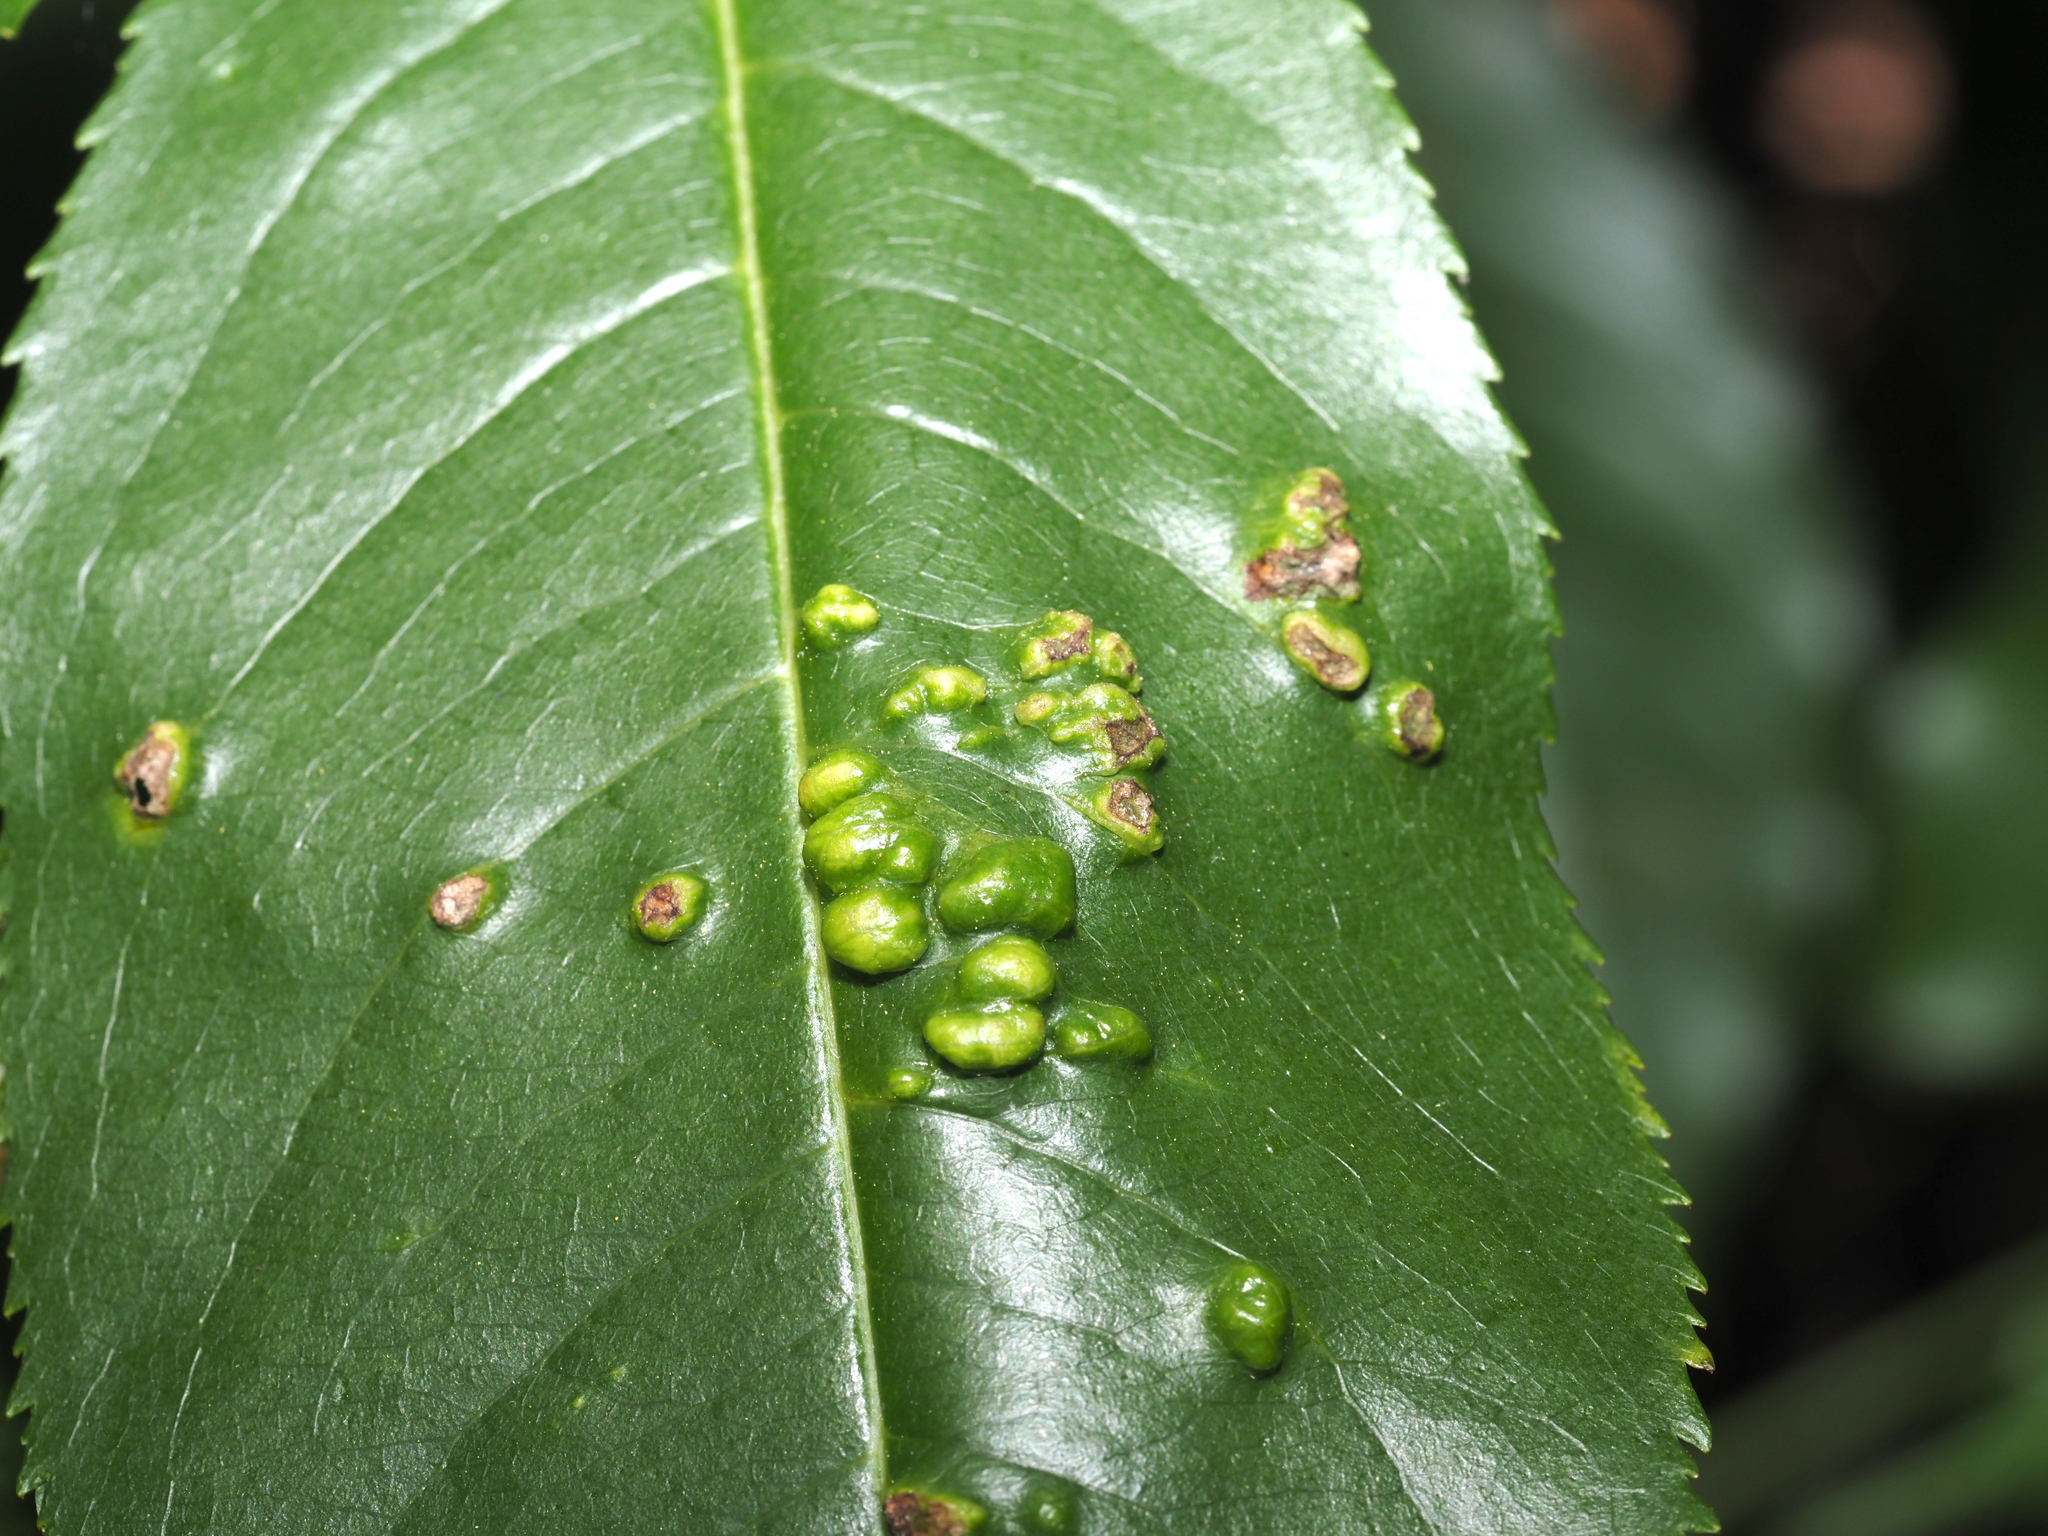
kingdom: Fungi
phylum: Ascomycota
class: Taphrinomycetes
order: Taphrinales
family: Taphrinaceae
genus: Taphrina
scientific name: Taphrina farlowii
